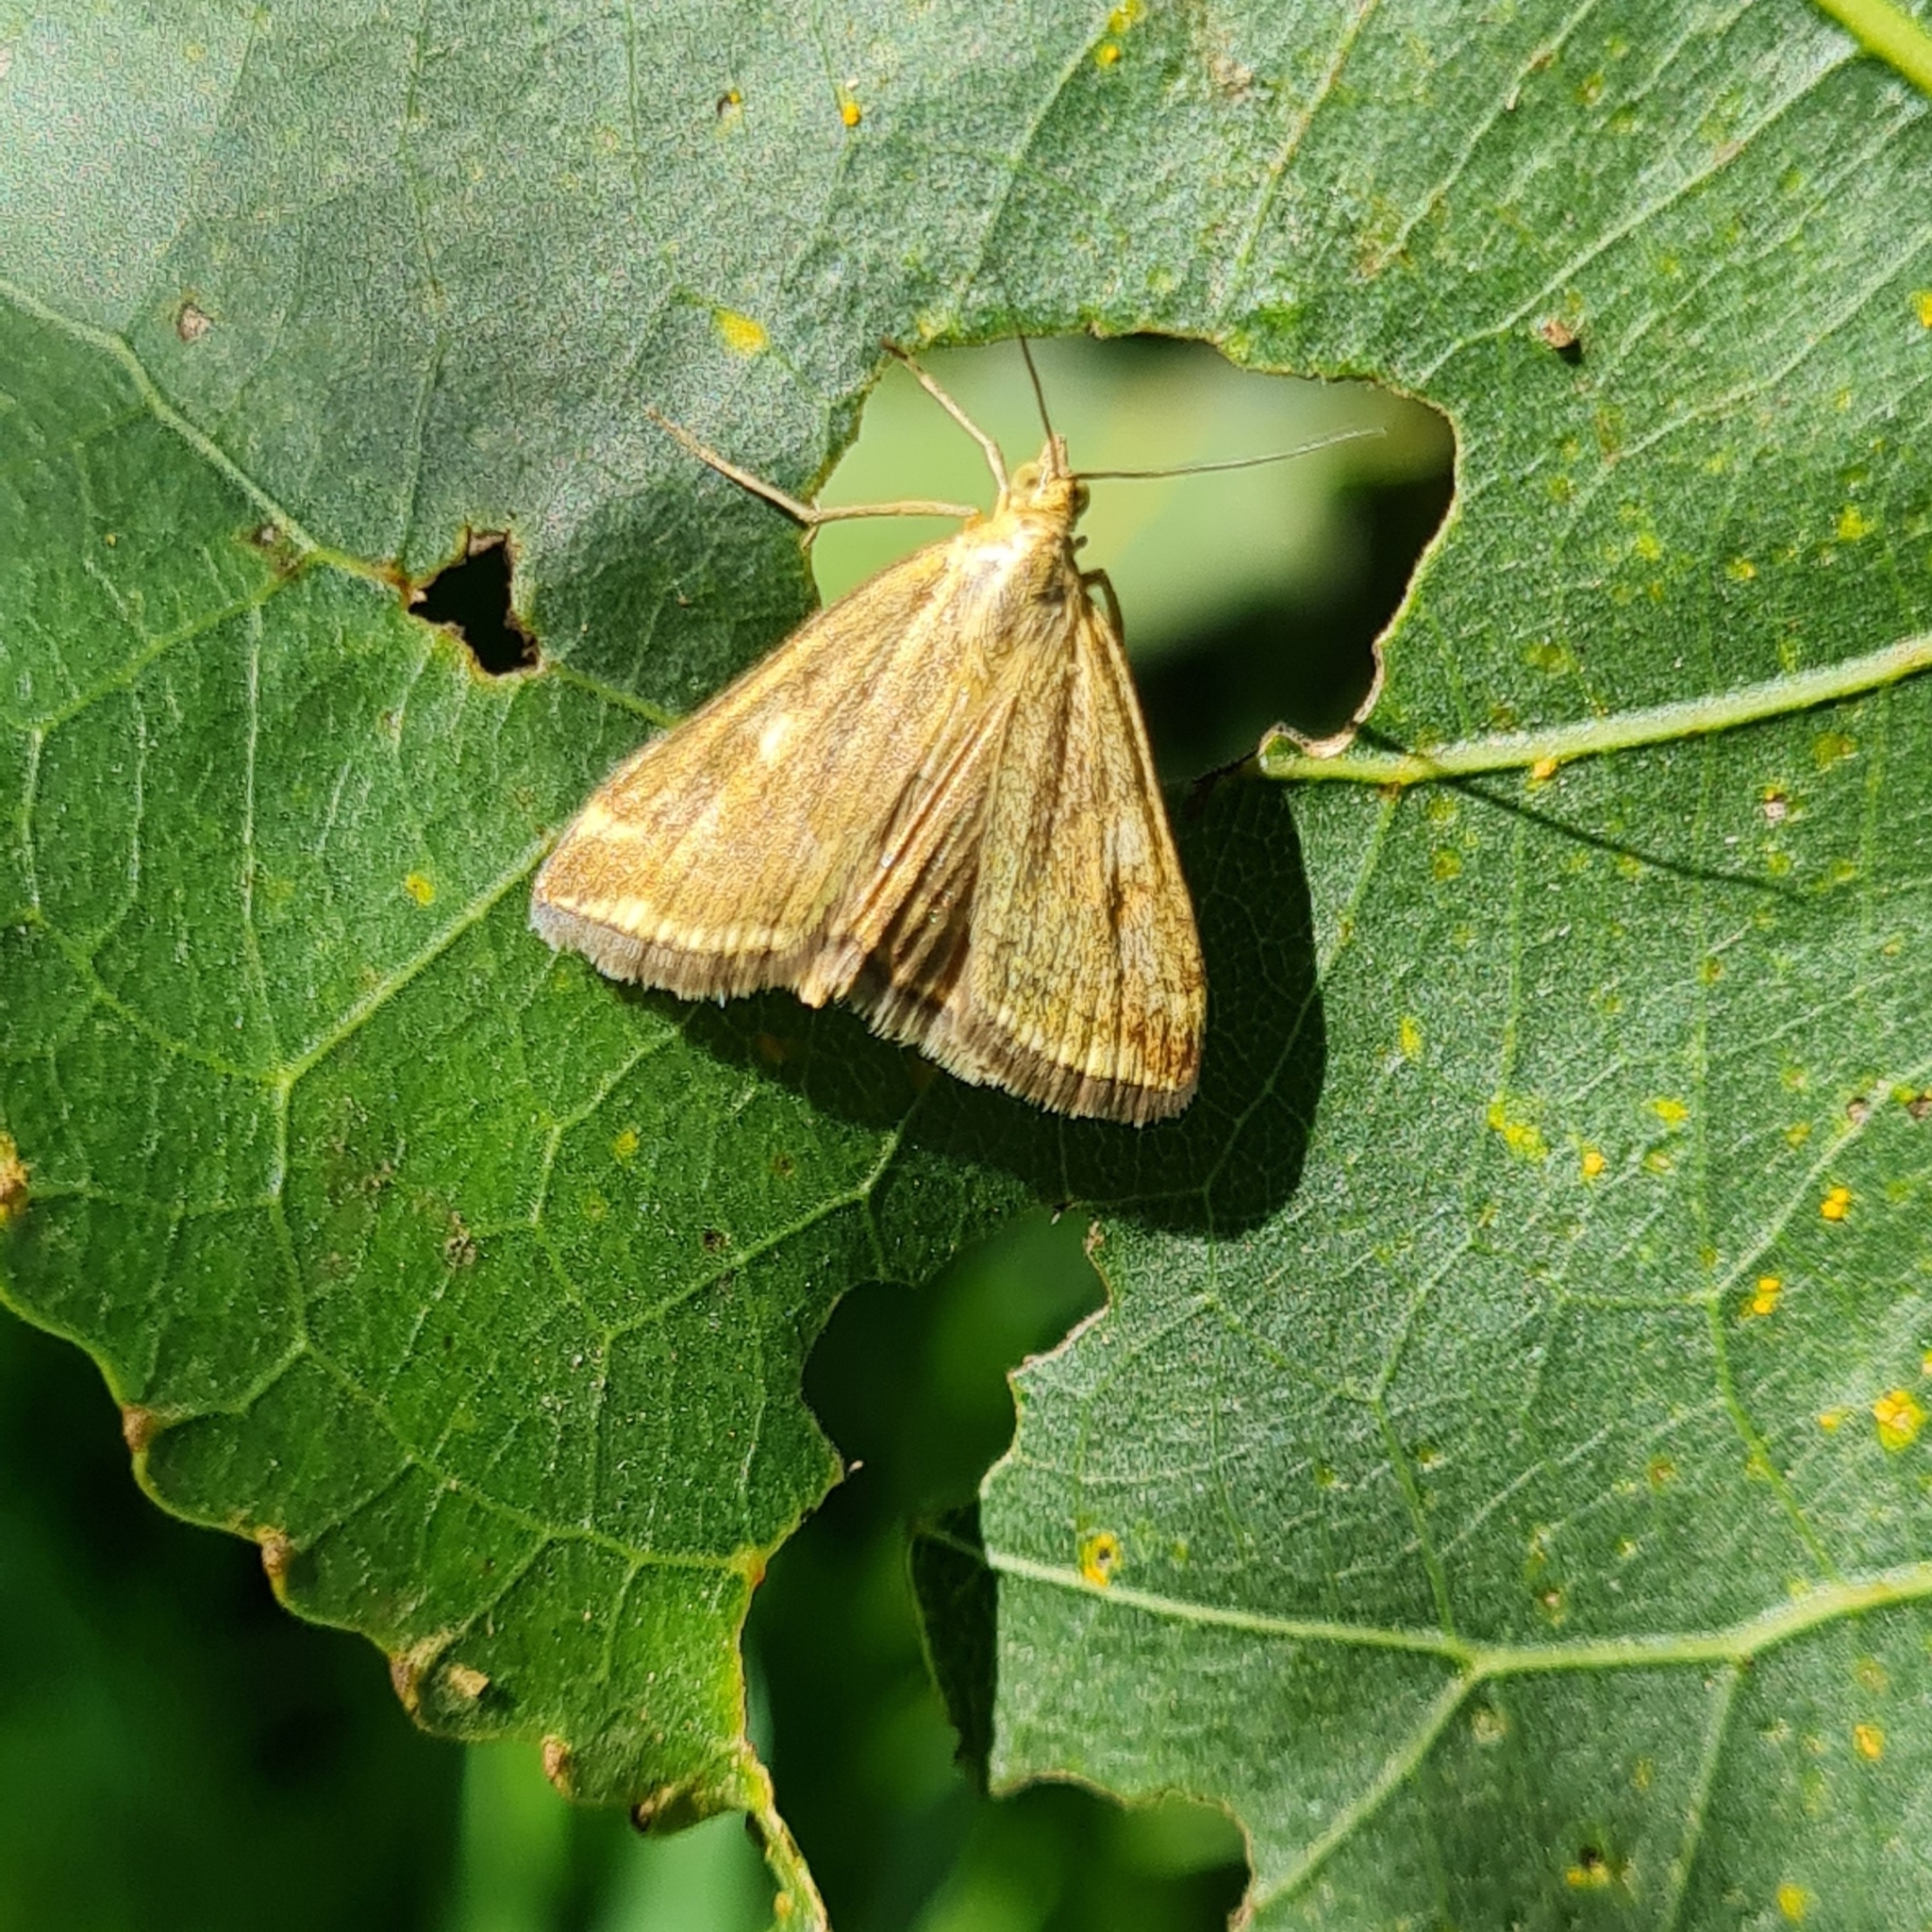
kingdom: Animalia
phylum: Arthropoda
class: Insecta
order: Lepidoptera
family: Crambidae
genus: Loxostege
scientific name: Loxostege sticticalis
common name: Crambid moth
